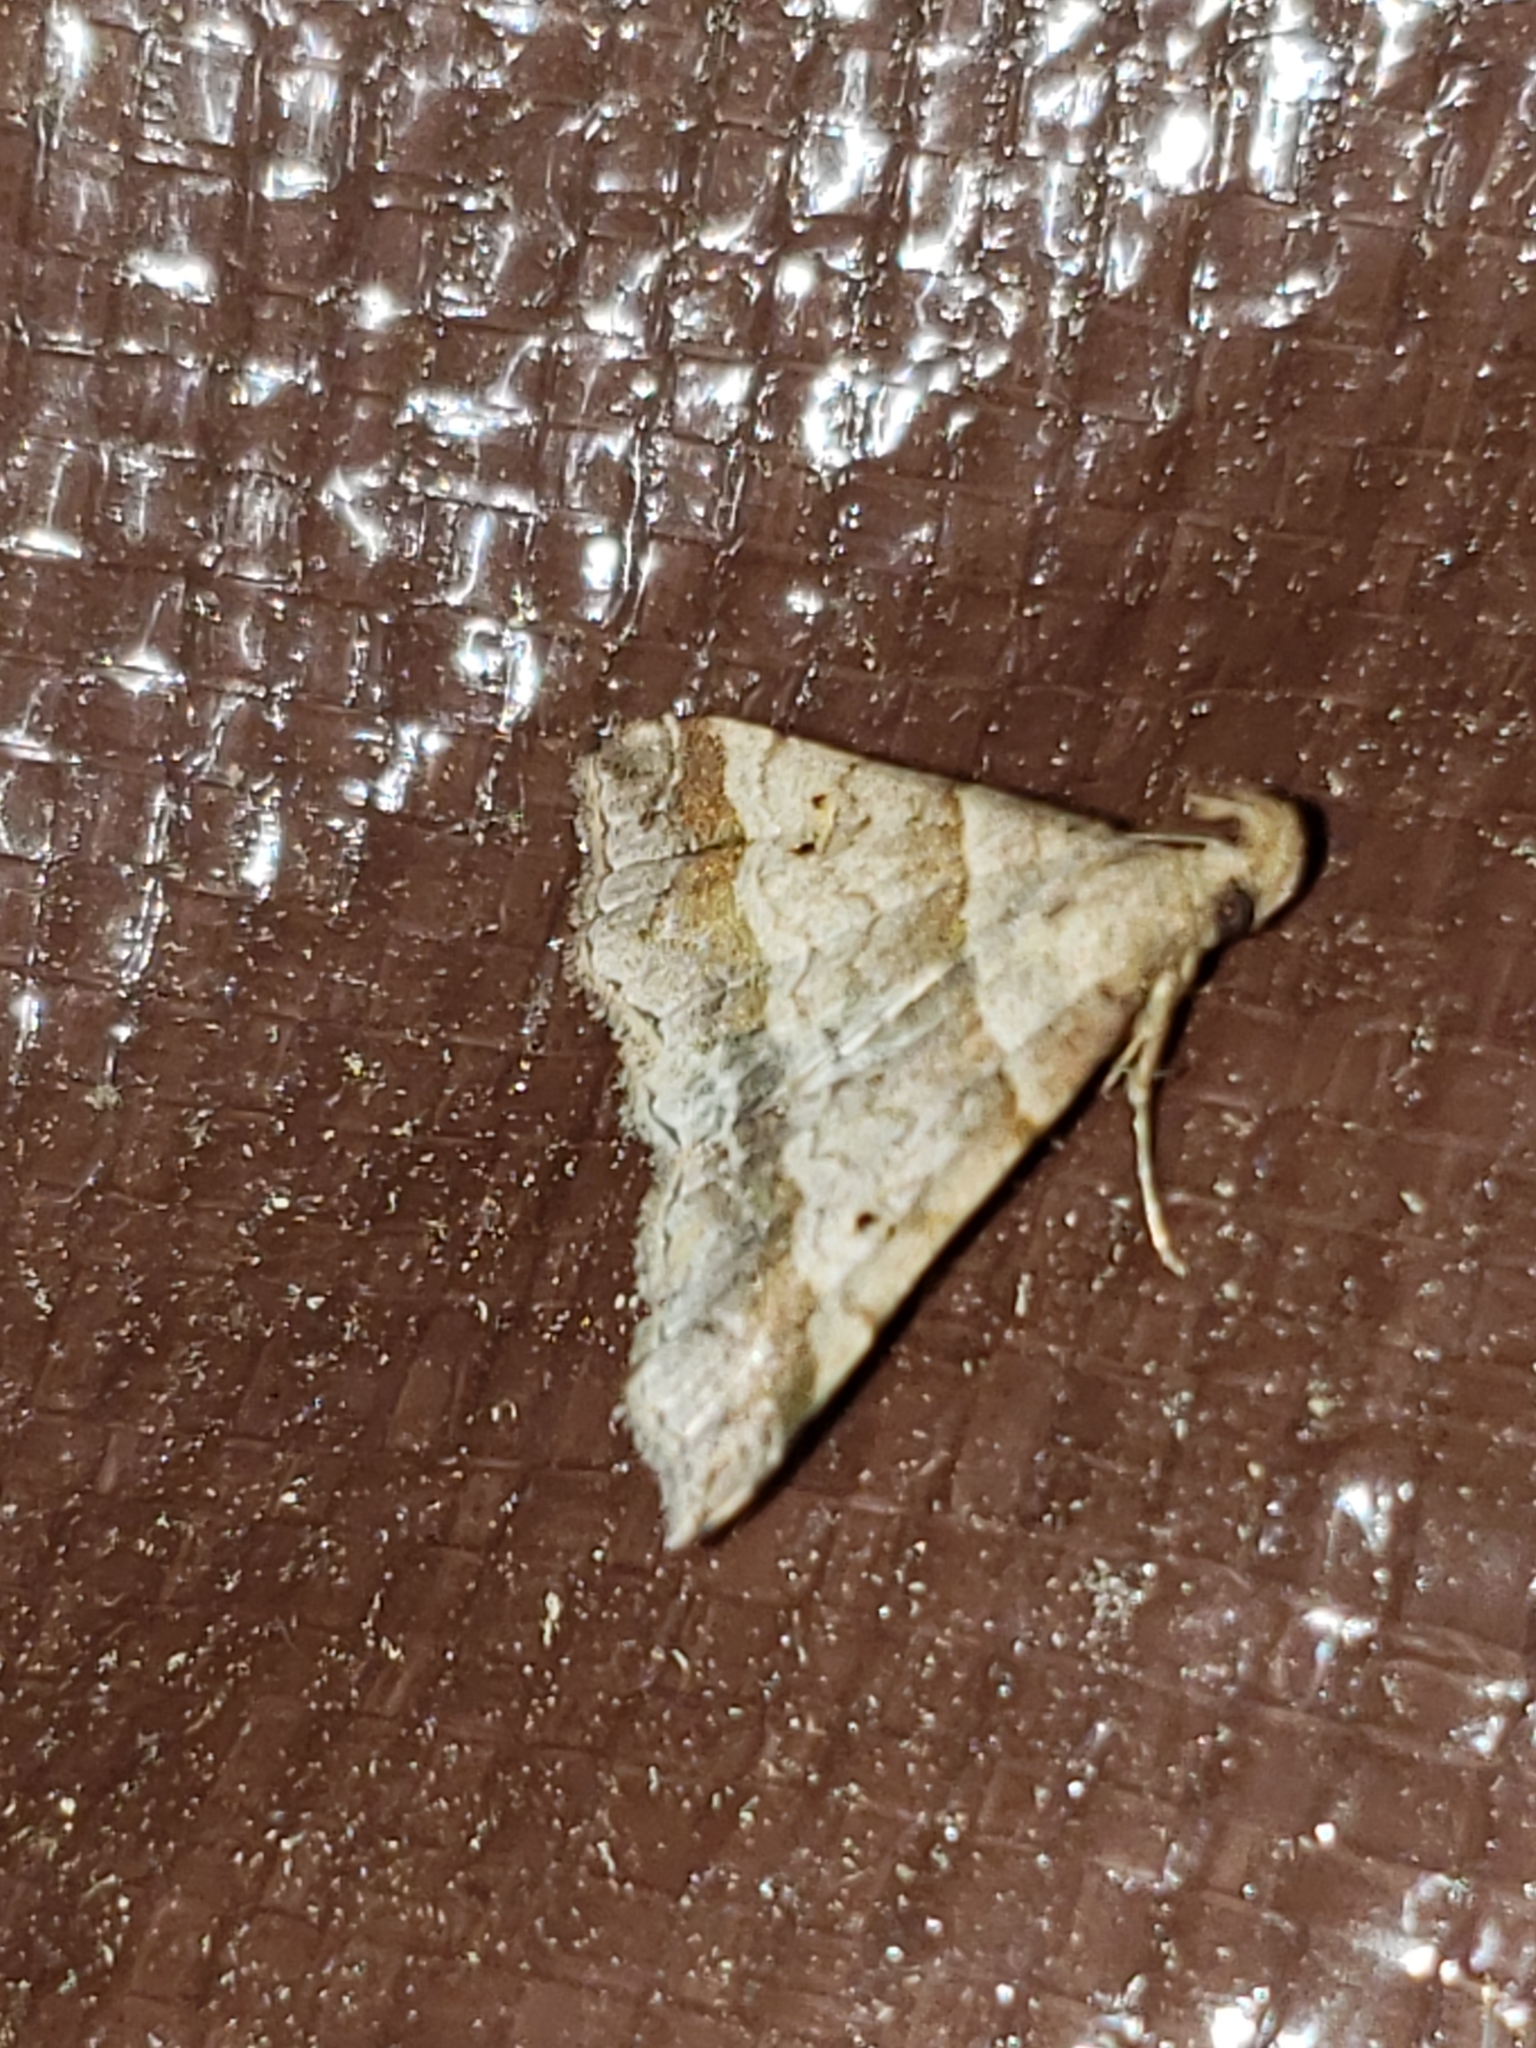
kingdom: Animalia
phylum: Arthropoda
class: Insecta
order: Lepidoptera
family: Erebidae
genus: Phaeolita
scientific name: Phaeolita pyramusalis
